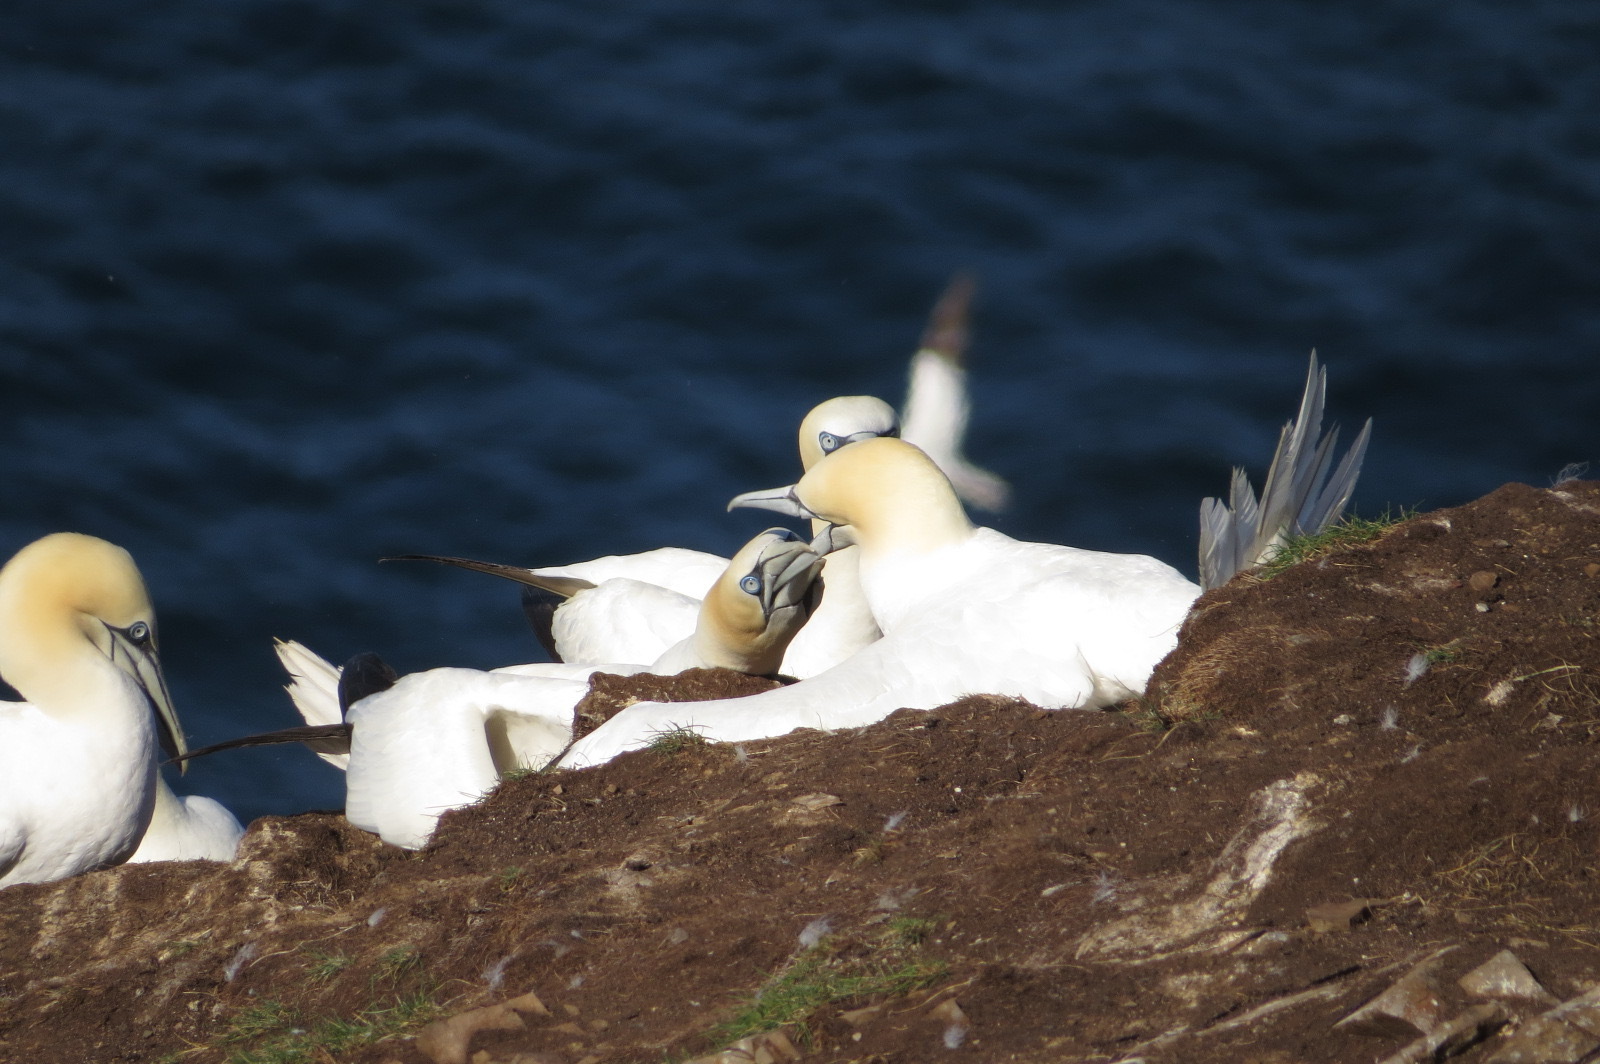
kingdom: Animalia
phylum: Chordata
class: Aves
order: Suliformes
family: Sulidae
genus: Morus
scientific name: Morus bassanus
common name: Northern gannet
